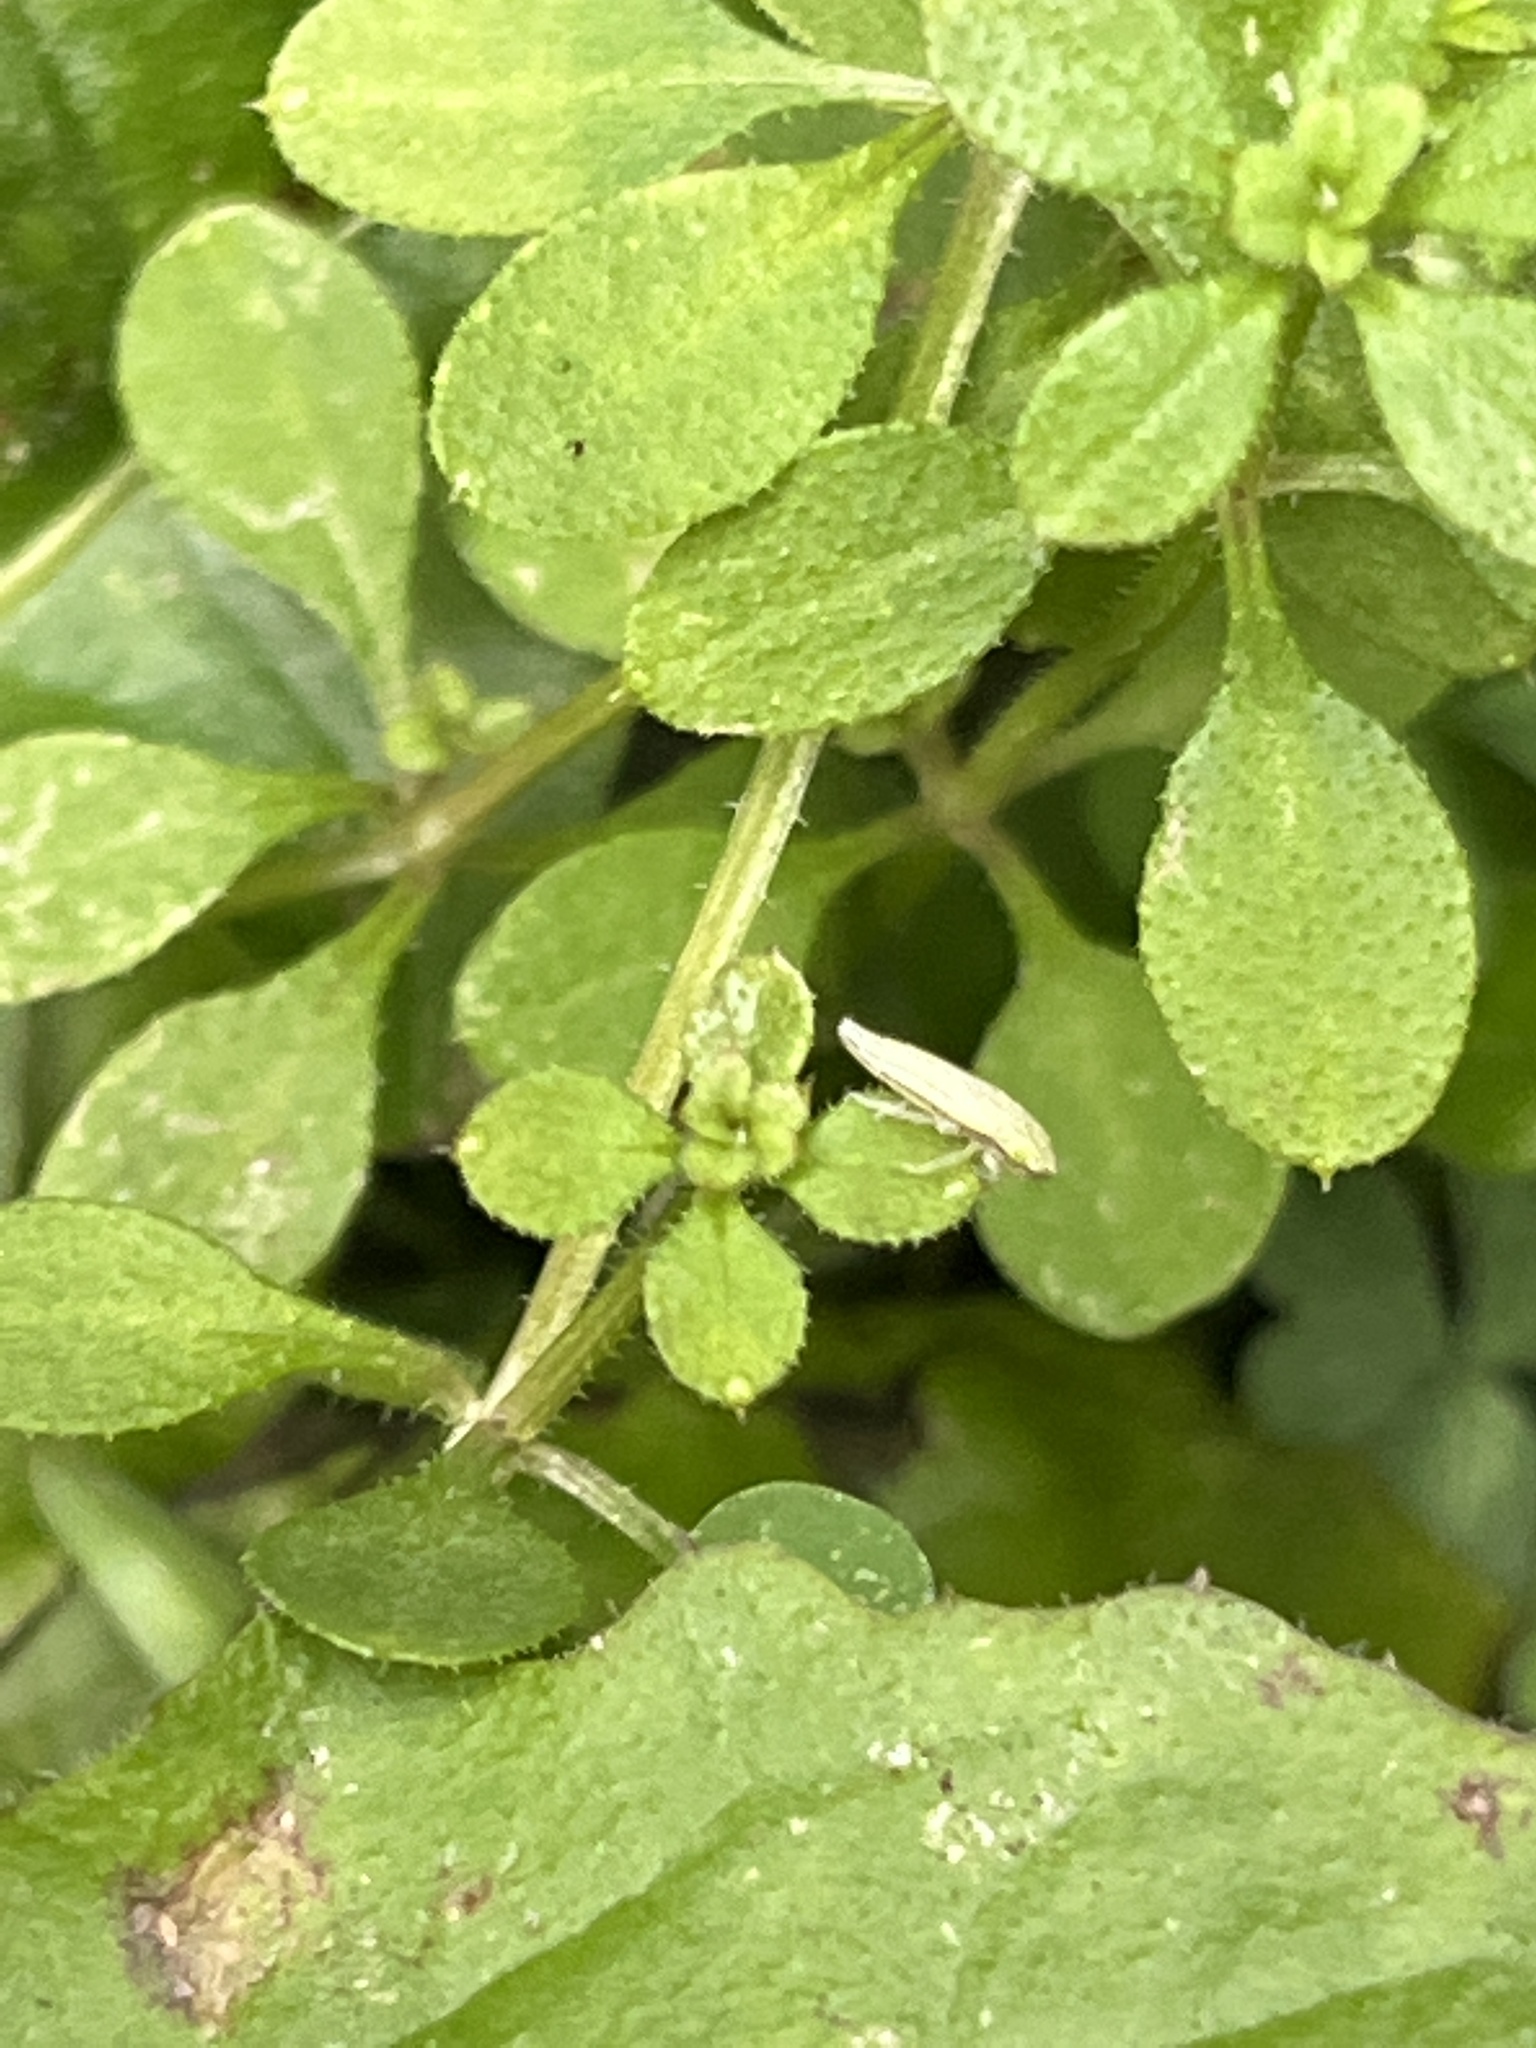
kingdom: Animalia
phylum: Arthropoda
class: Insecta
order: Hemiptera
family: Cicadellidae
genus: Hortensia
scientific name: Hortensia similis
